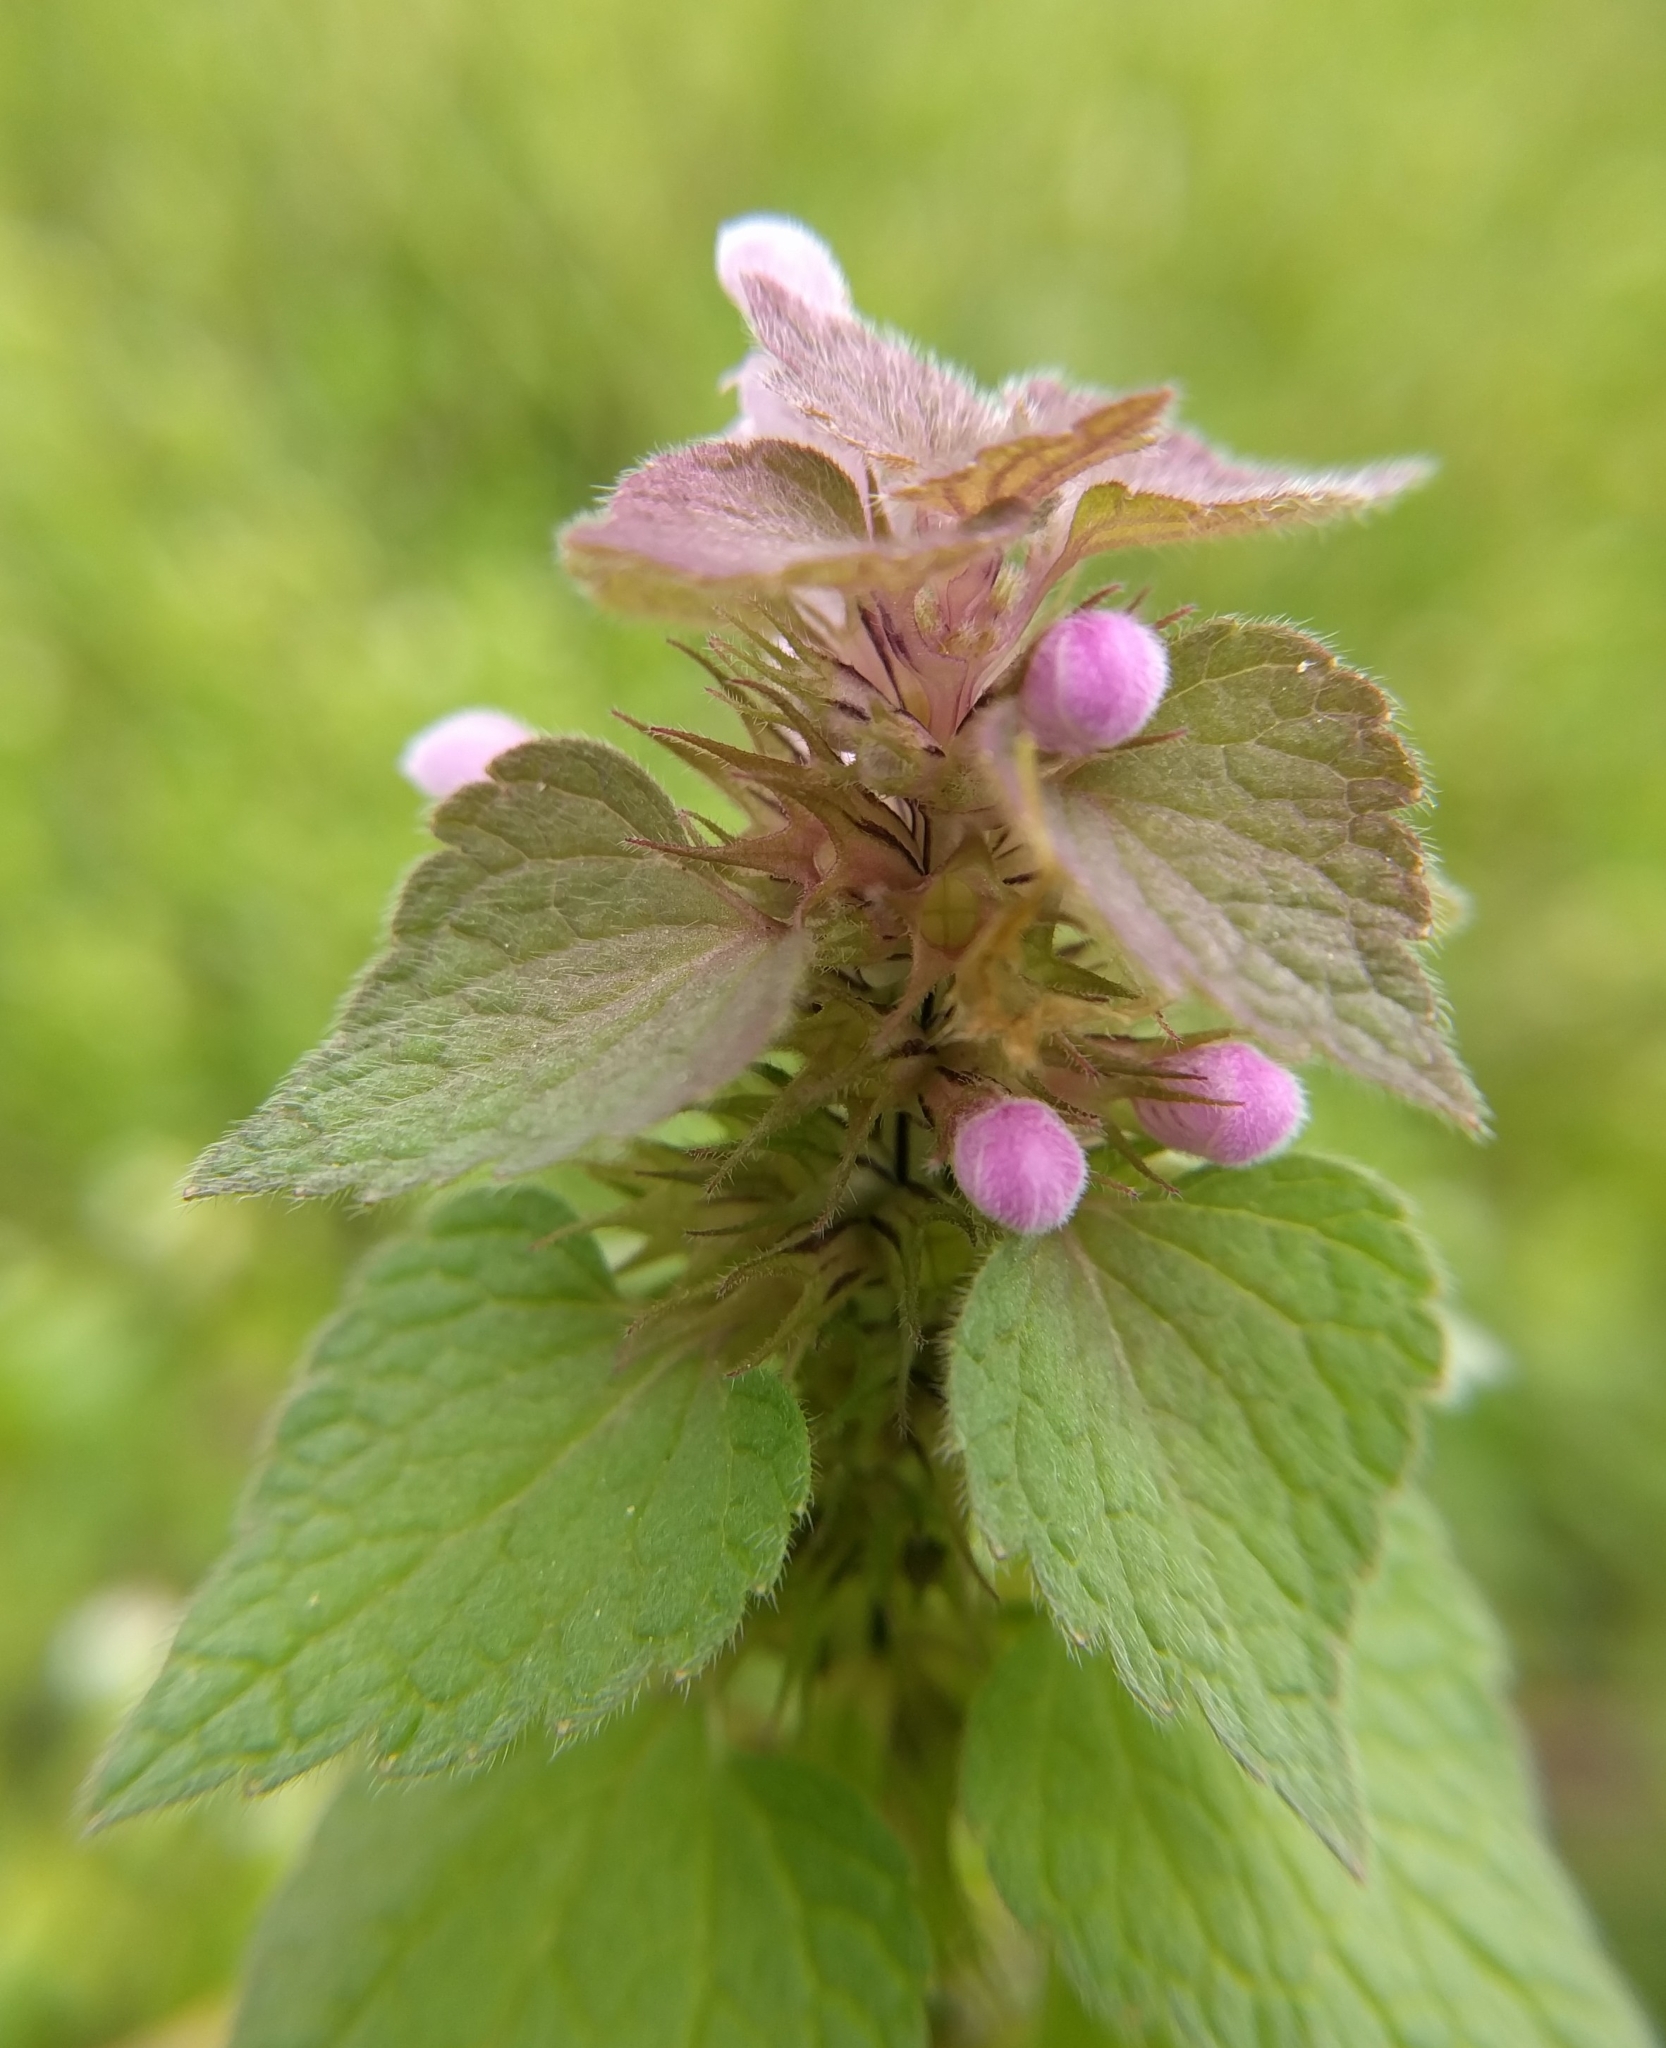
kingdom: Plantae
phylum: Tracheophyta
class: Magnoliopsida
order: Lamiales
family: Lamiaceae
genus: Lamium
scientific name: Lamium purpureum
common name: Red dead-nettle
